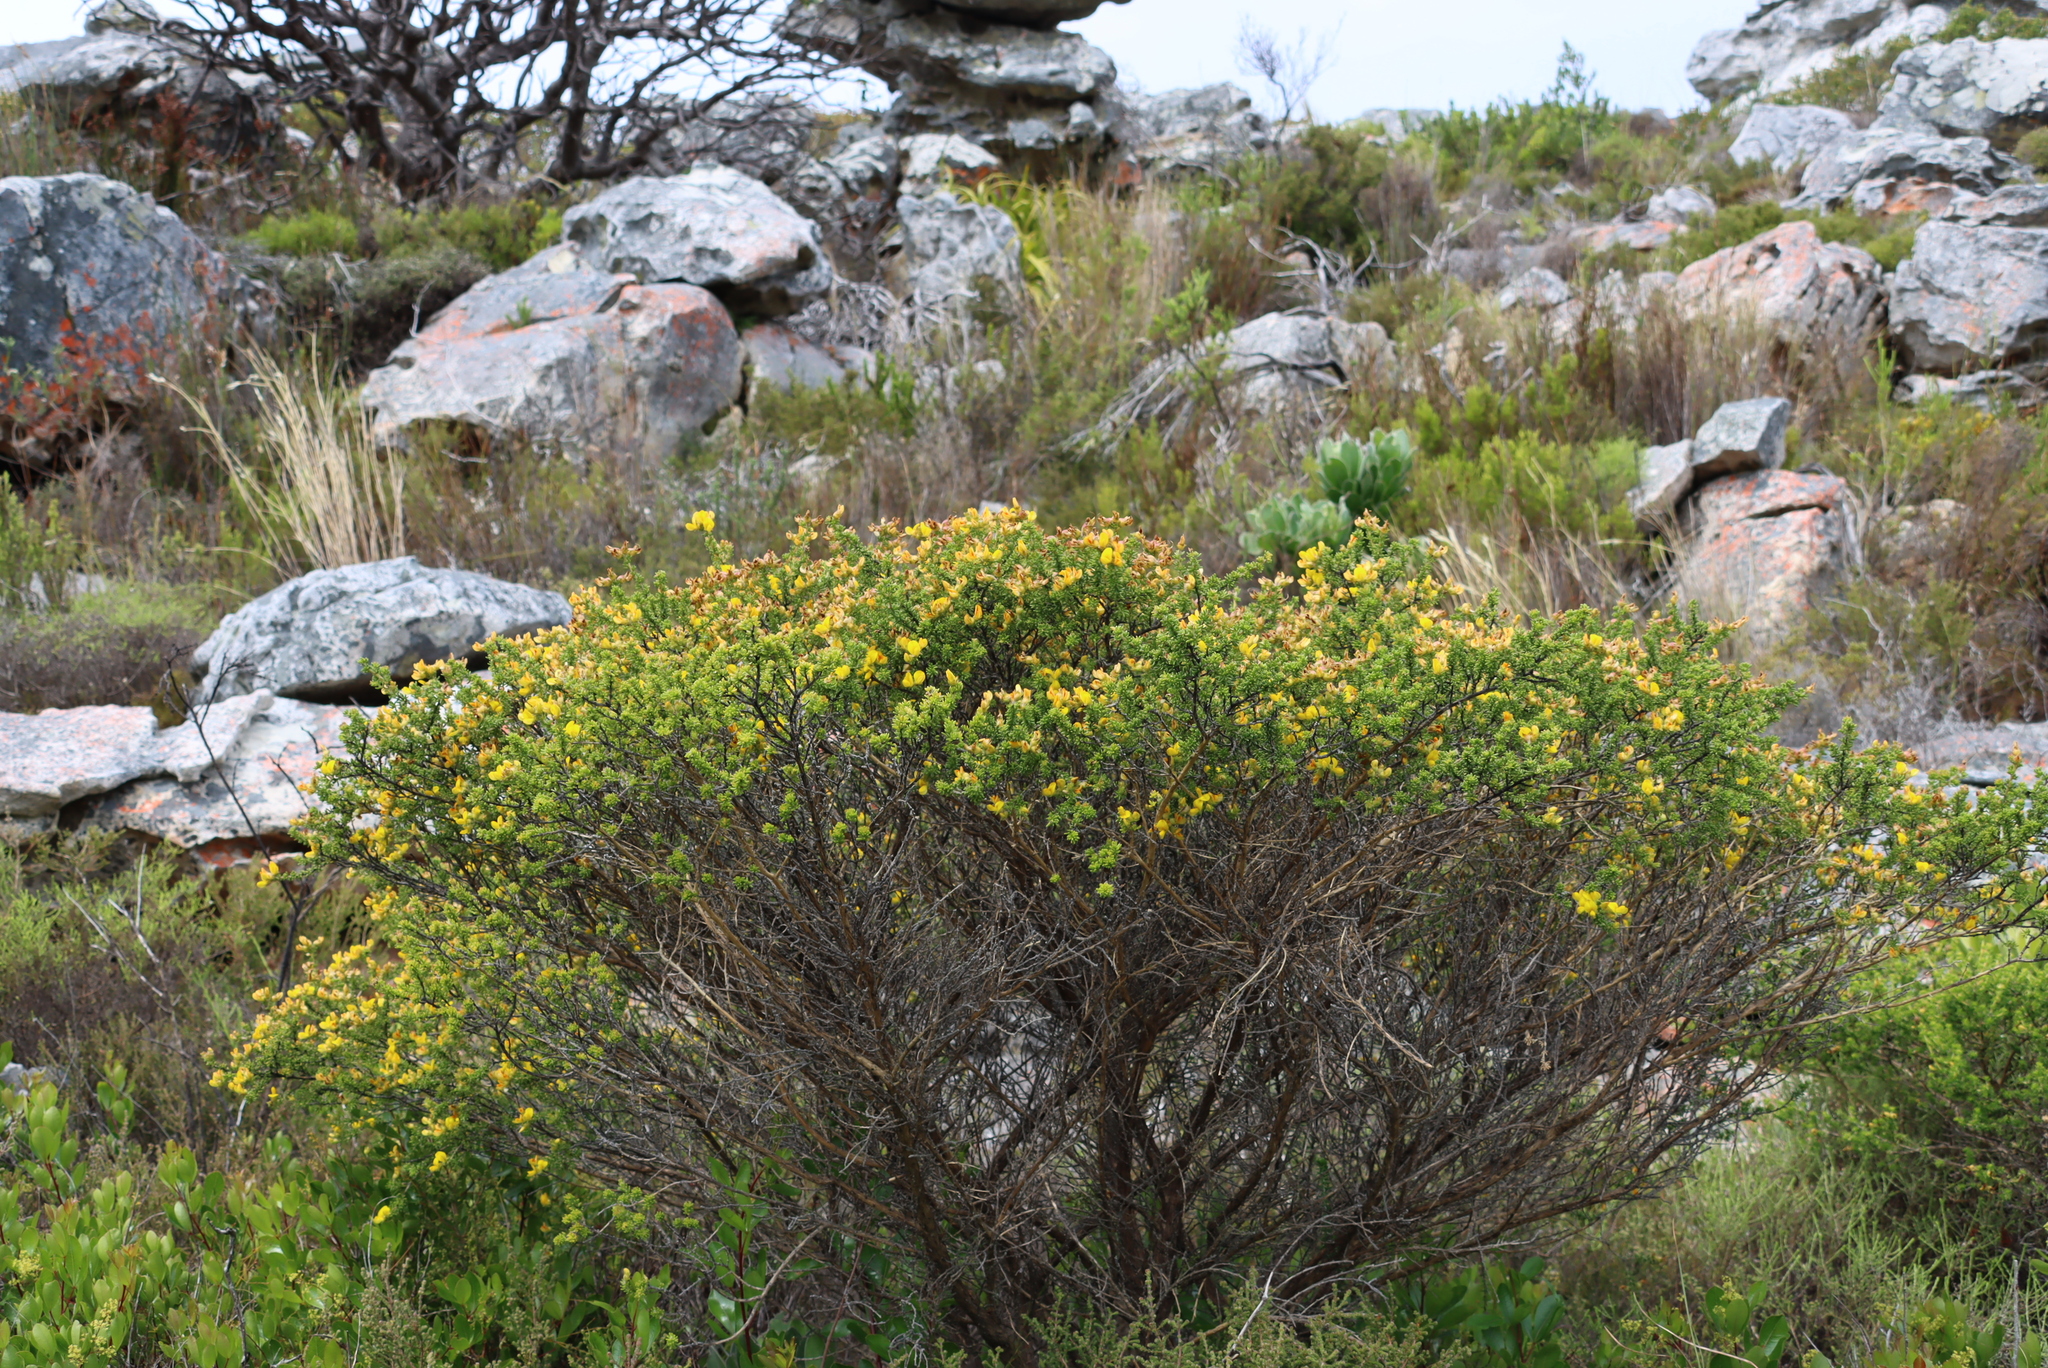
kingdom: Plantae
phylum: Tracheophyta
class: Magnoliopsida
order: Fabales
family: Fabaceae
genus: Aspalathus
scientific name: Aspalathus carnosa
